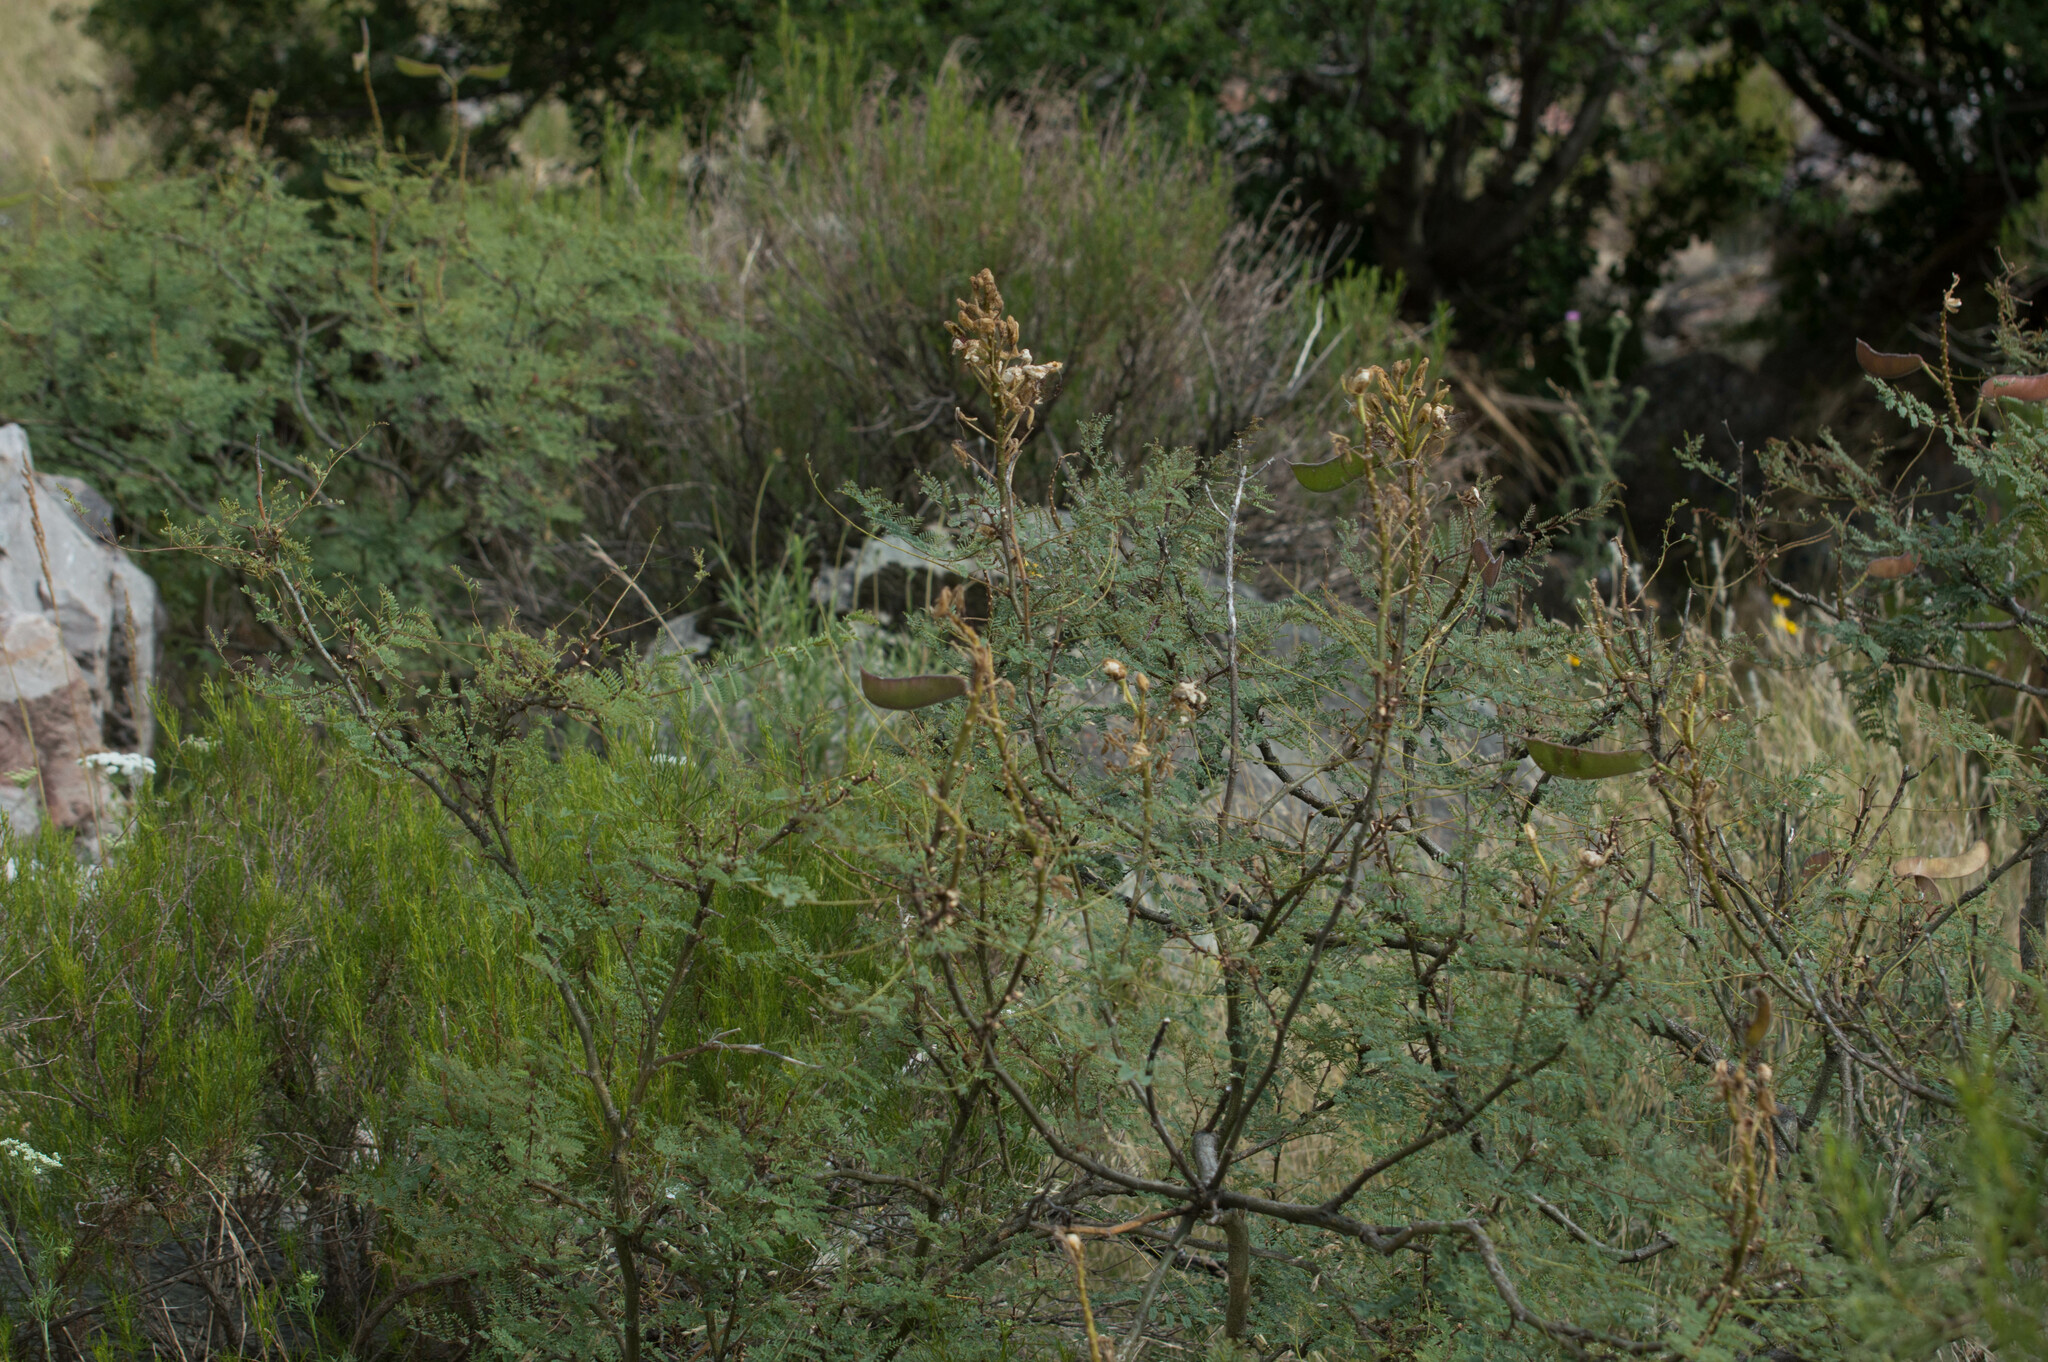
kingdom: Plantae
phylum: Tracheophyta
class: Magnoliopsida
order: Fabales
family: Fabaceae
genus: Erythrostemon
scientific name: Erythrostemon gilliesii
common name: Bird-of-paradise shrub
